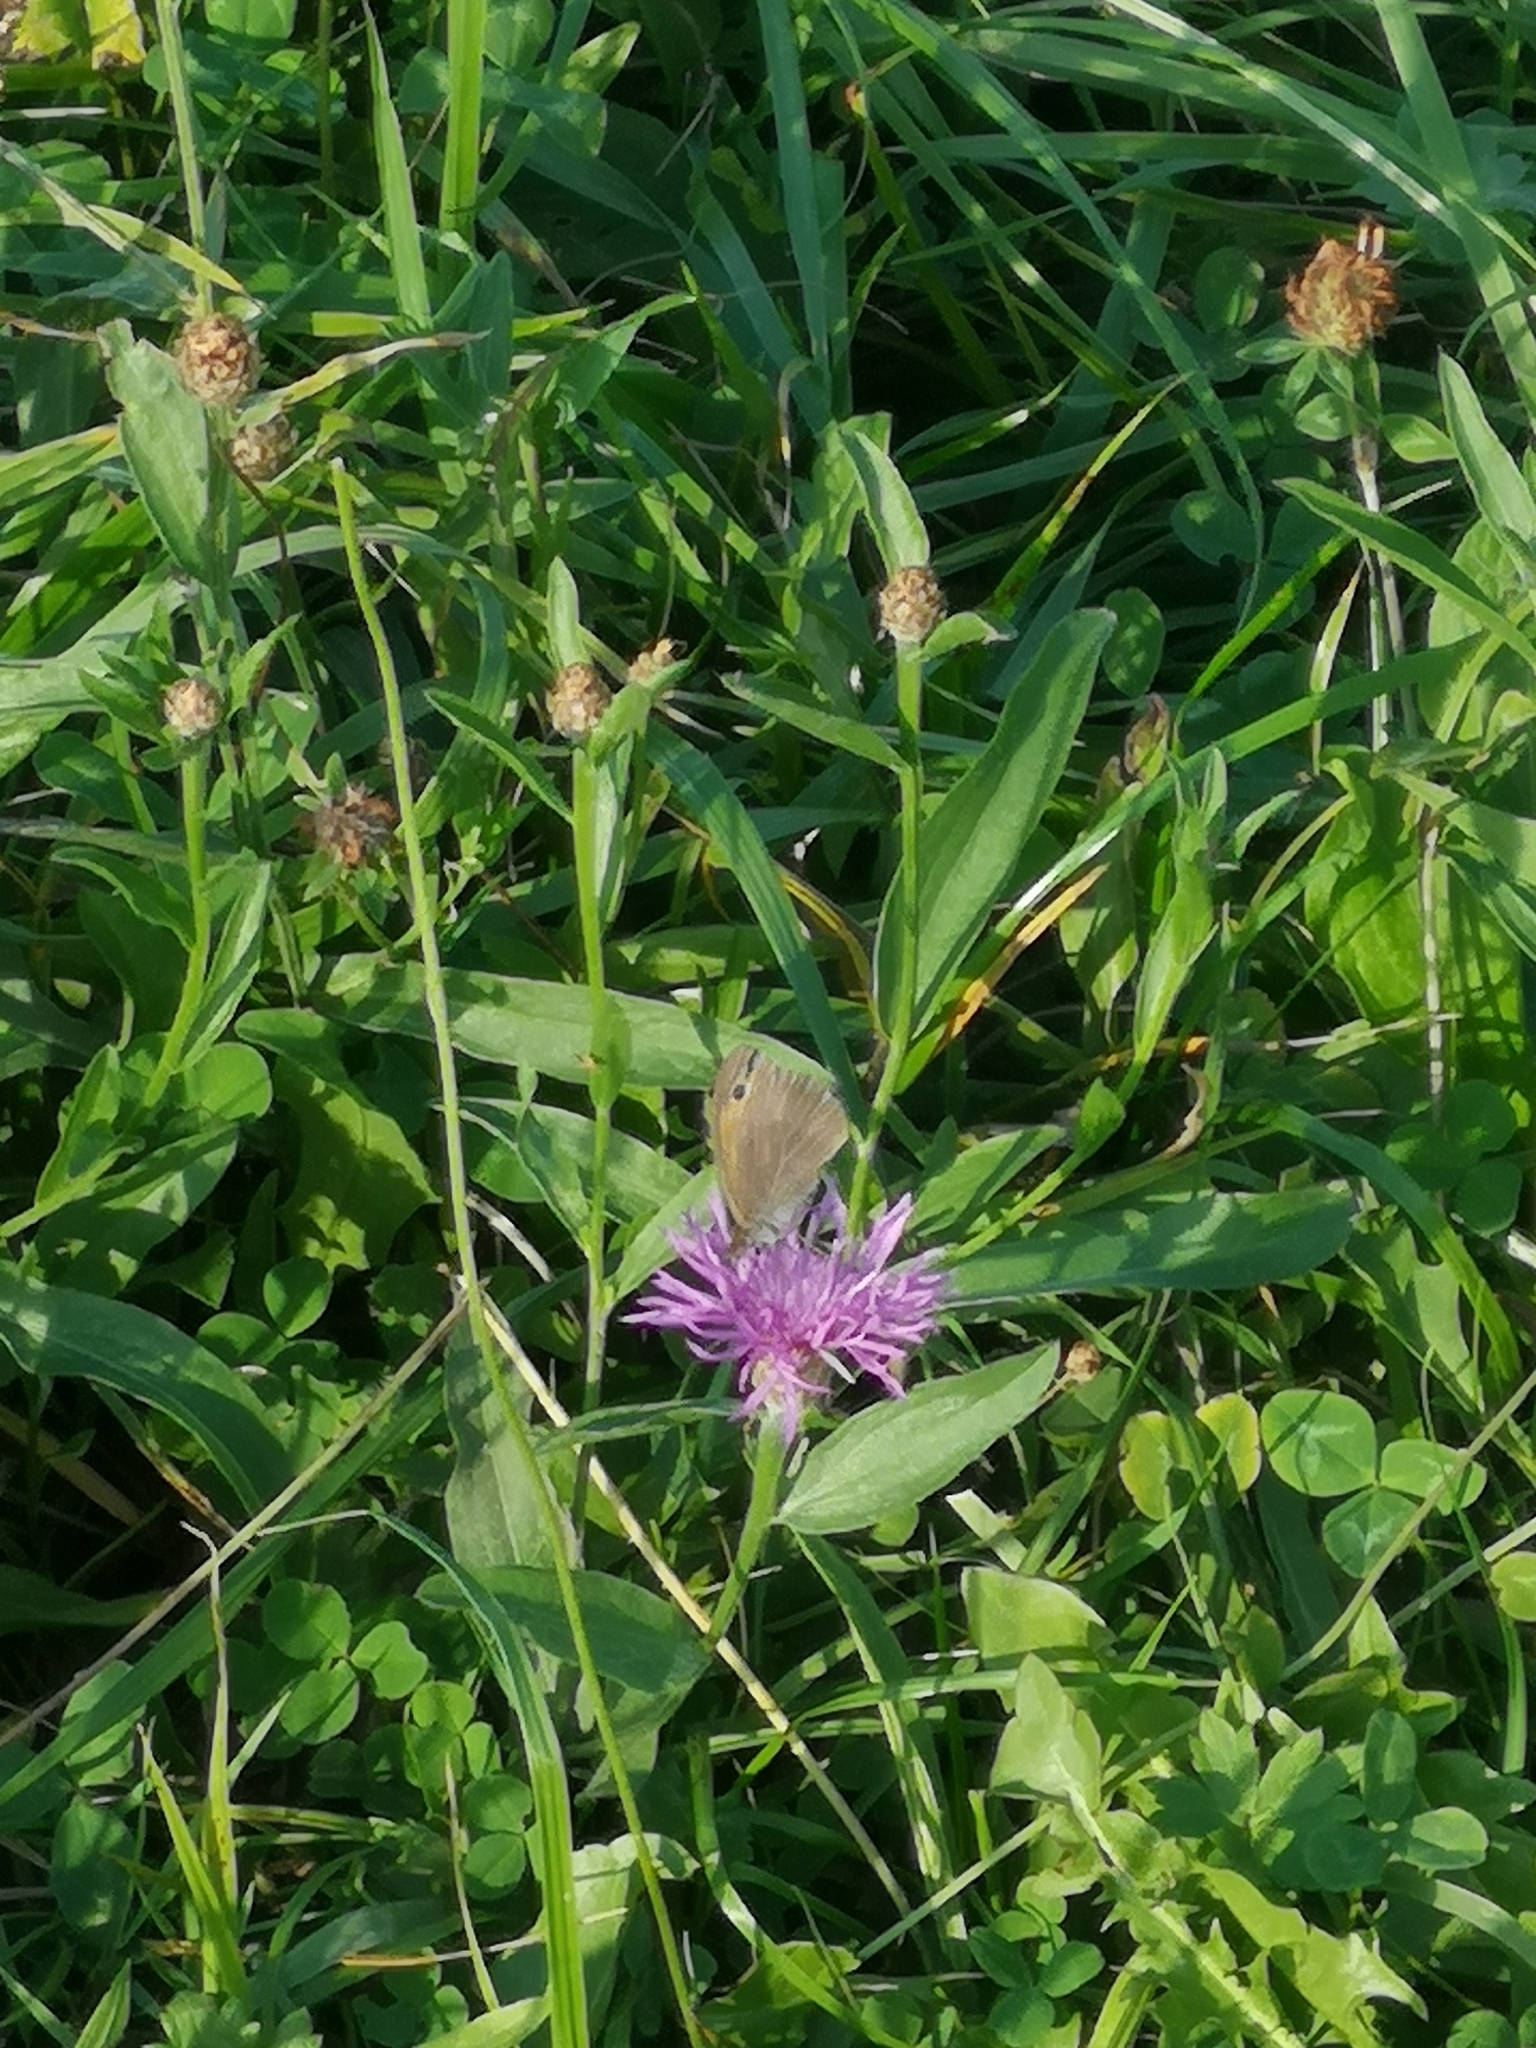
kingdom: Animalia
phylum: Arthropoda
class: Insecta
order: Lepidoptera
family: Nymphalidae
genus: Maniola
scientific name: Maniola jurtina
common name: Meadow brown
